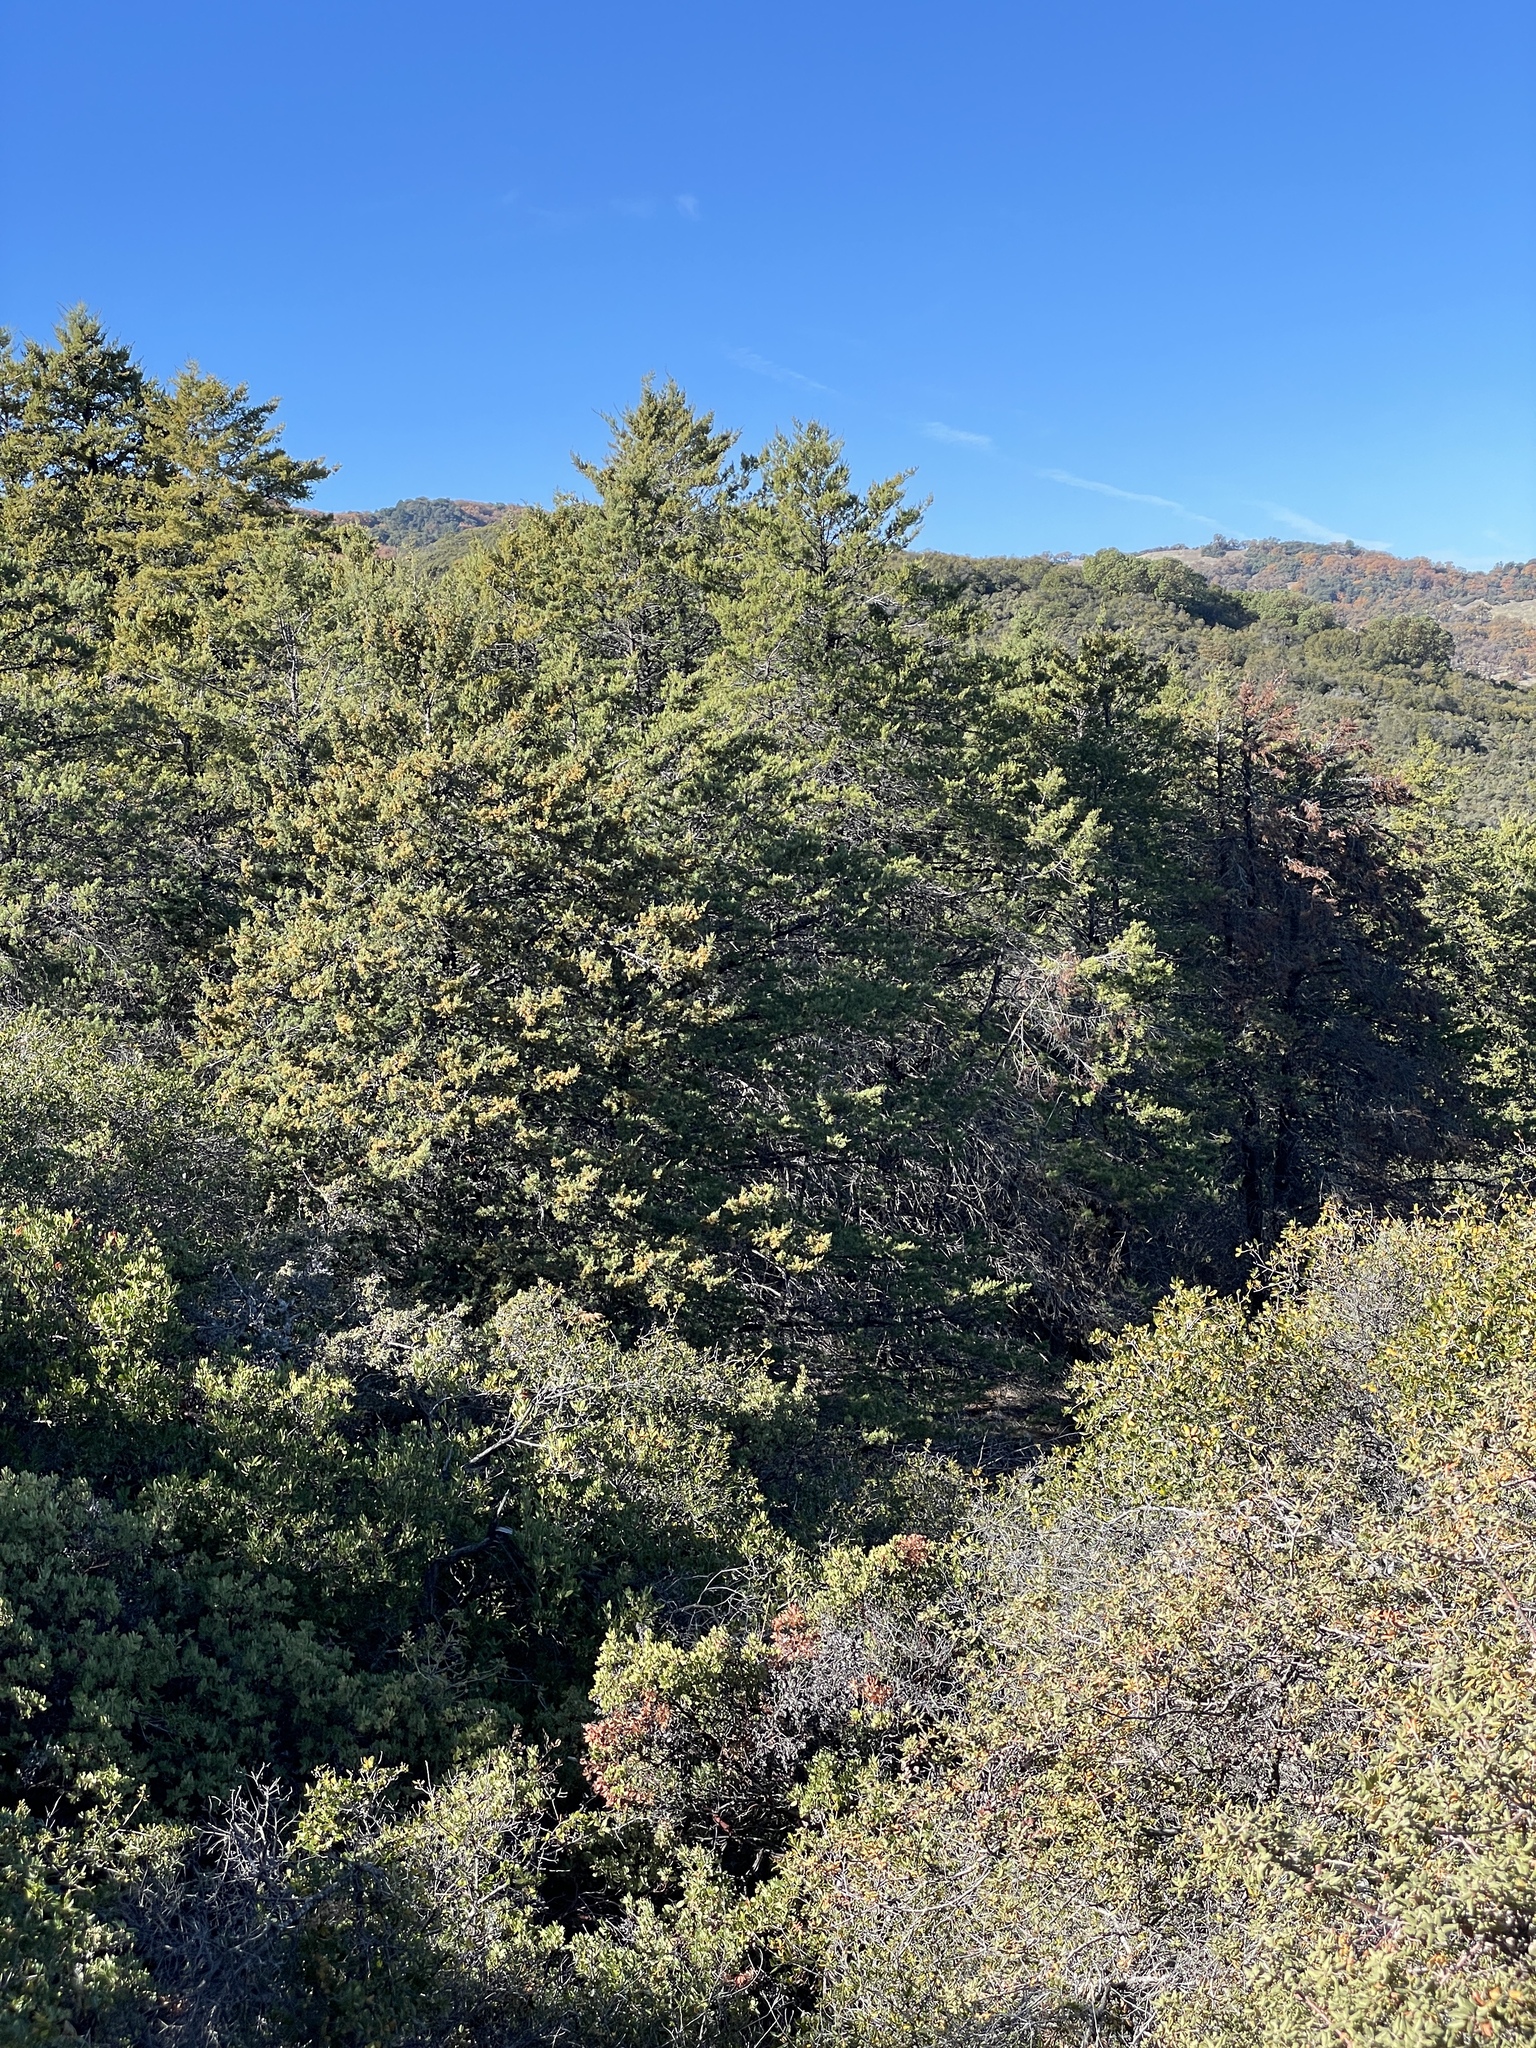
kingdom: Plantae
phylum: Tracheophyta
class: Pinopsida
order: Pinales
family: Cupressaceae
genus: Cupressus
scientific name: Cupressus sargentii
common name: Sargent cypress
